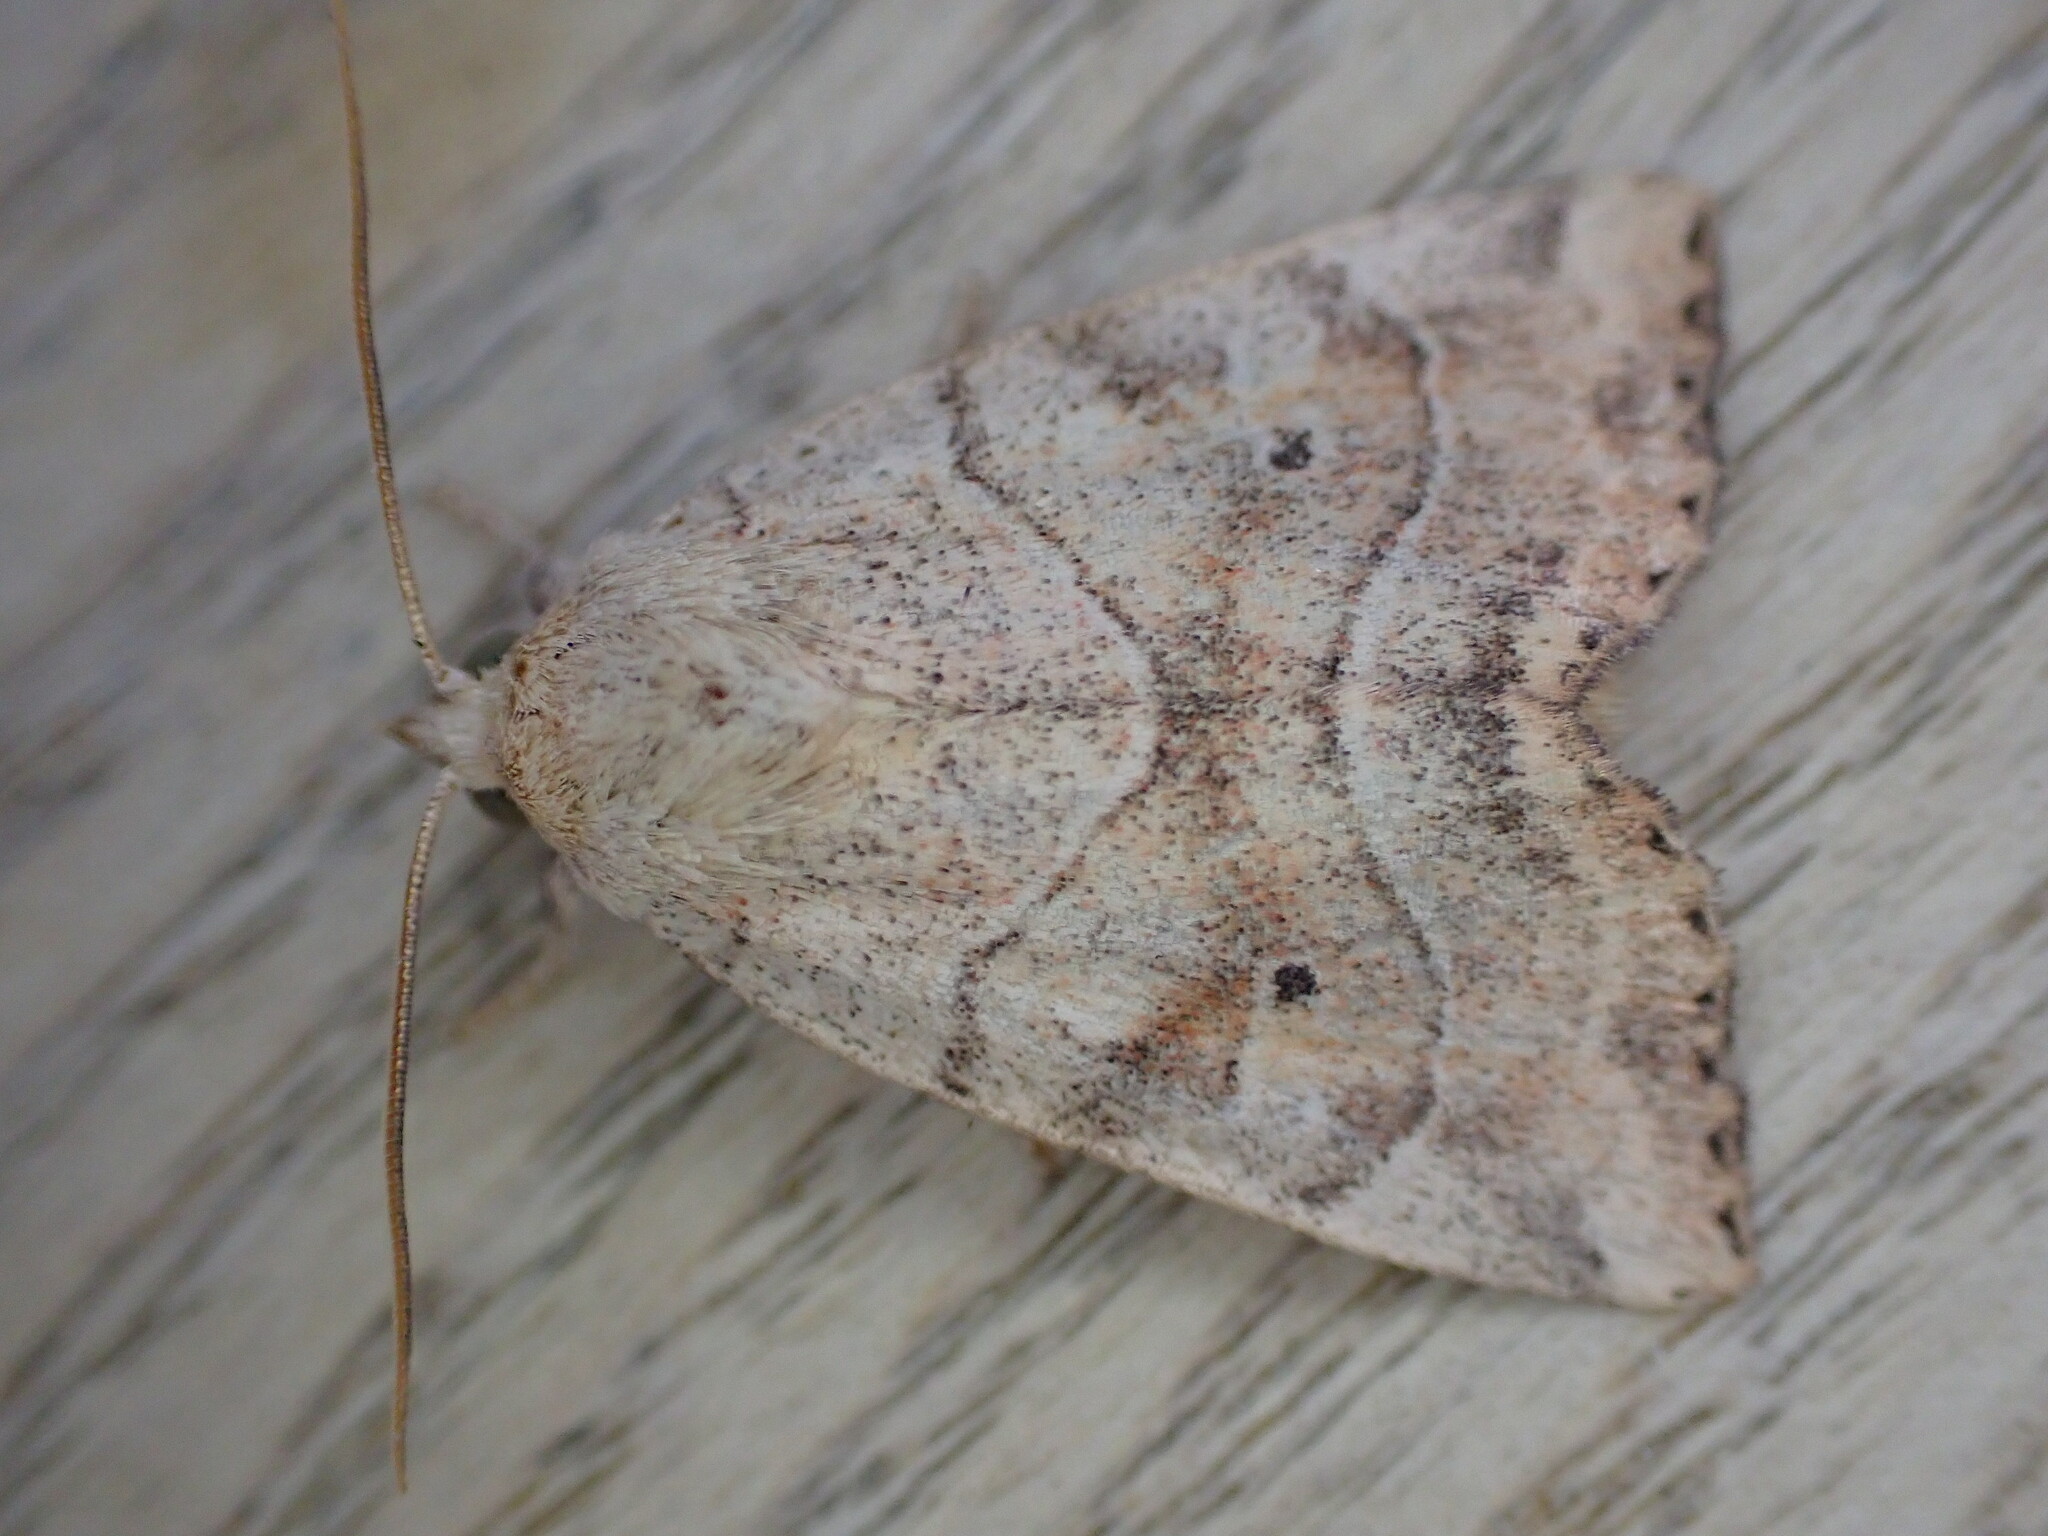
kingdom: Animalia
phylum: Arthropoda
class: Insecta
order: Lepidoptera
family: Noctuidae
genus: Cosmia
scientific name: Cosmia trapezina
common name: Dun-bar
